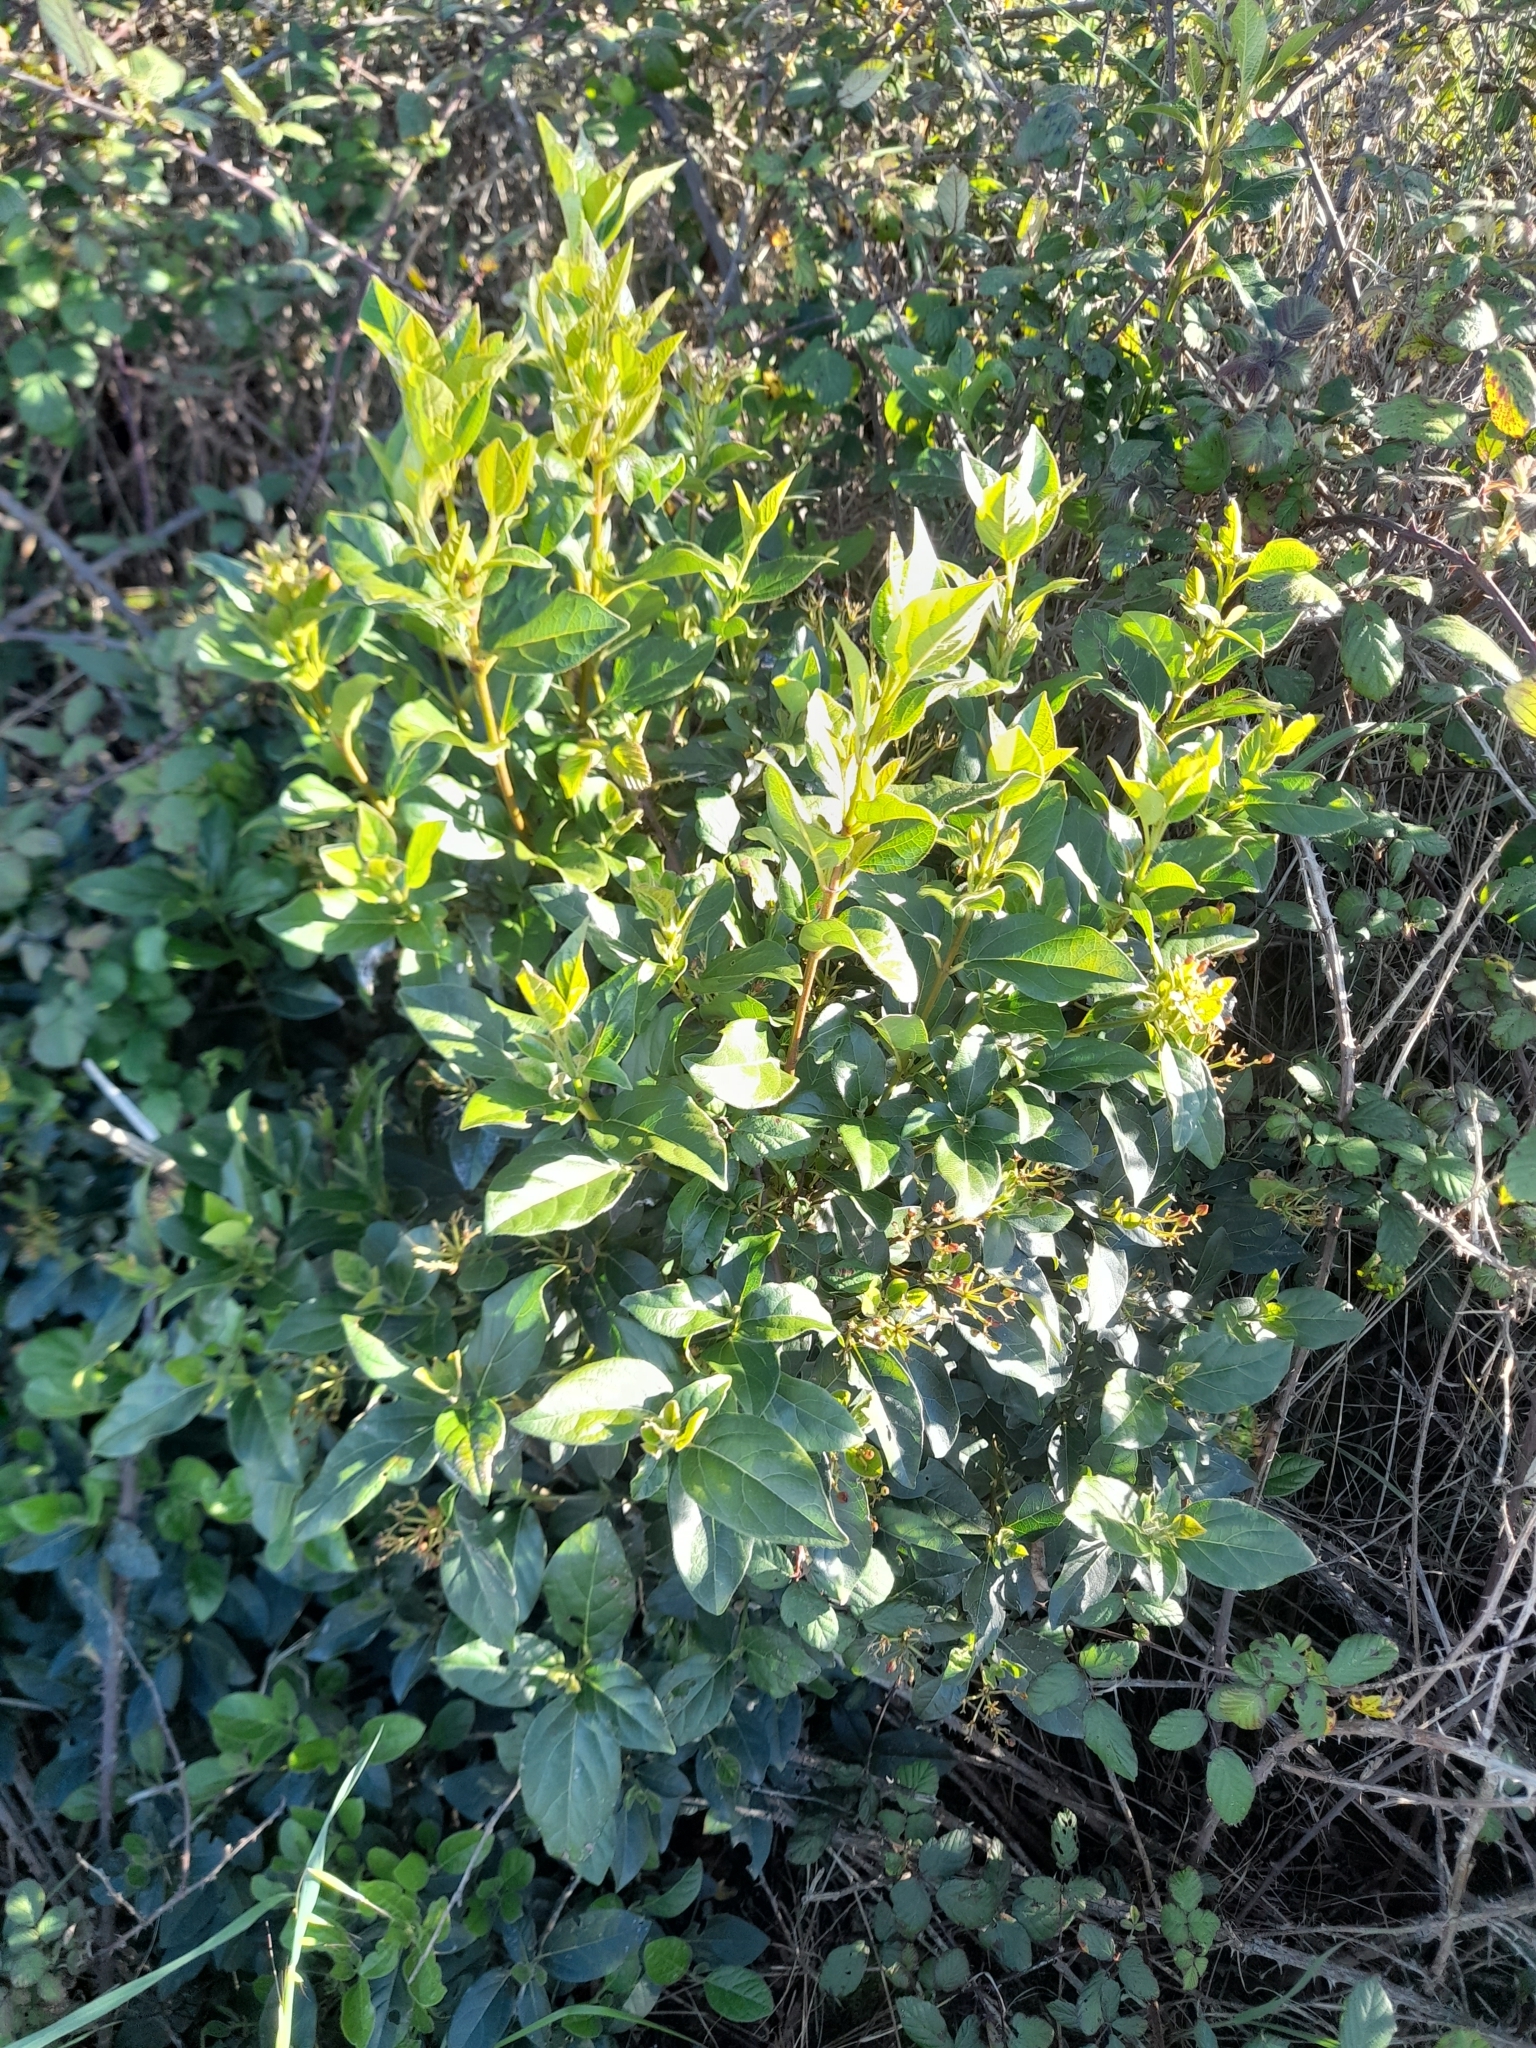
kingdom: Plantae
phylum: Tracheophyta
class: Magnoliopsida
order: Dipsacales
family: Viburnaceae
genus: Viburnum
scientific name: Viburnum tinus
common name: Laurustinus
